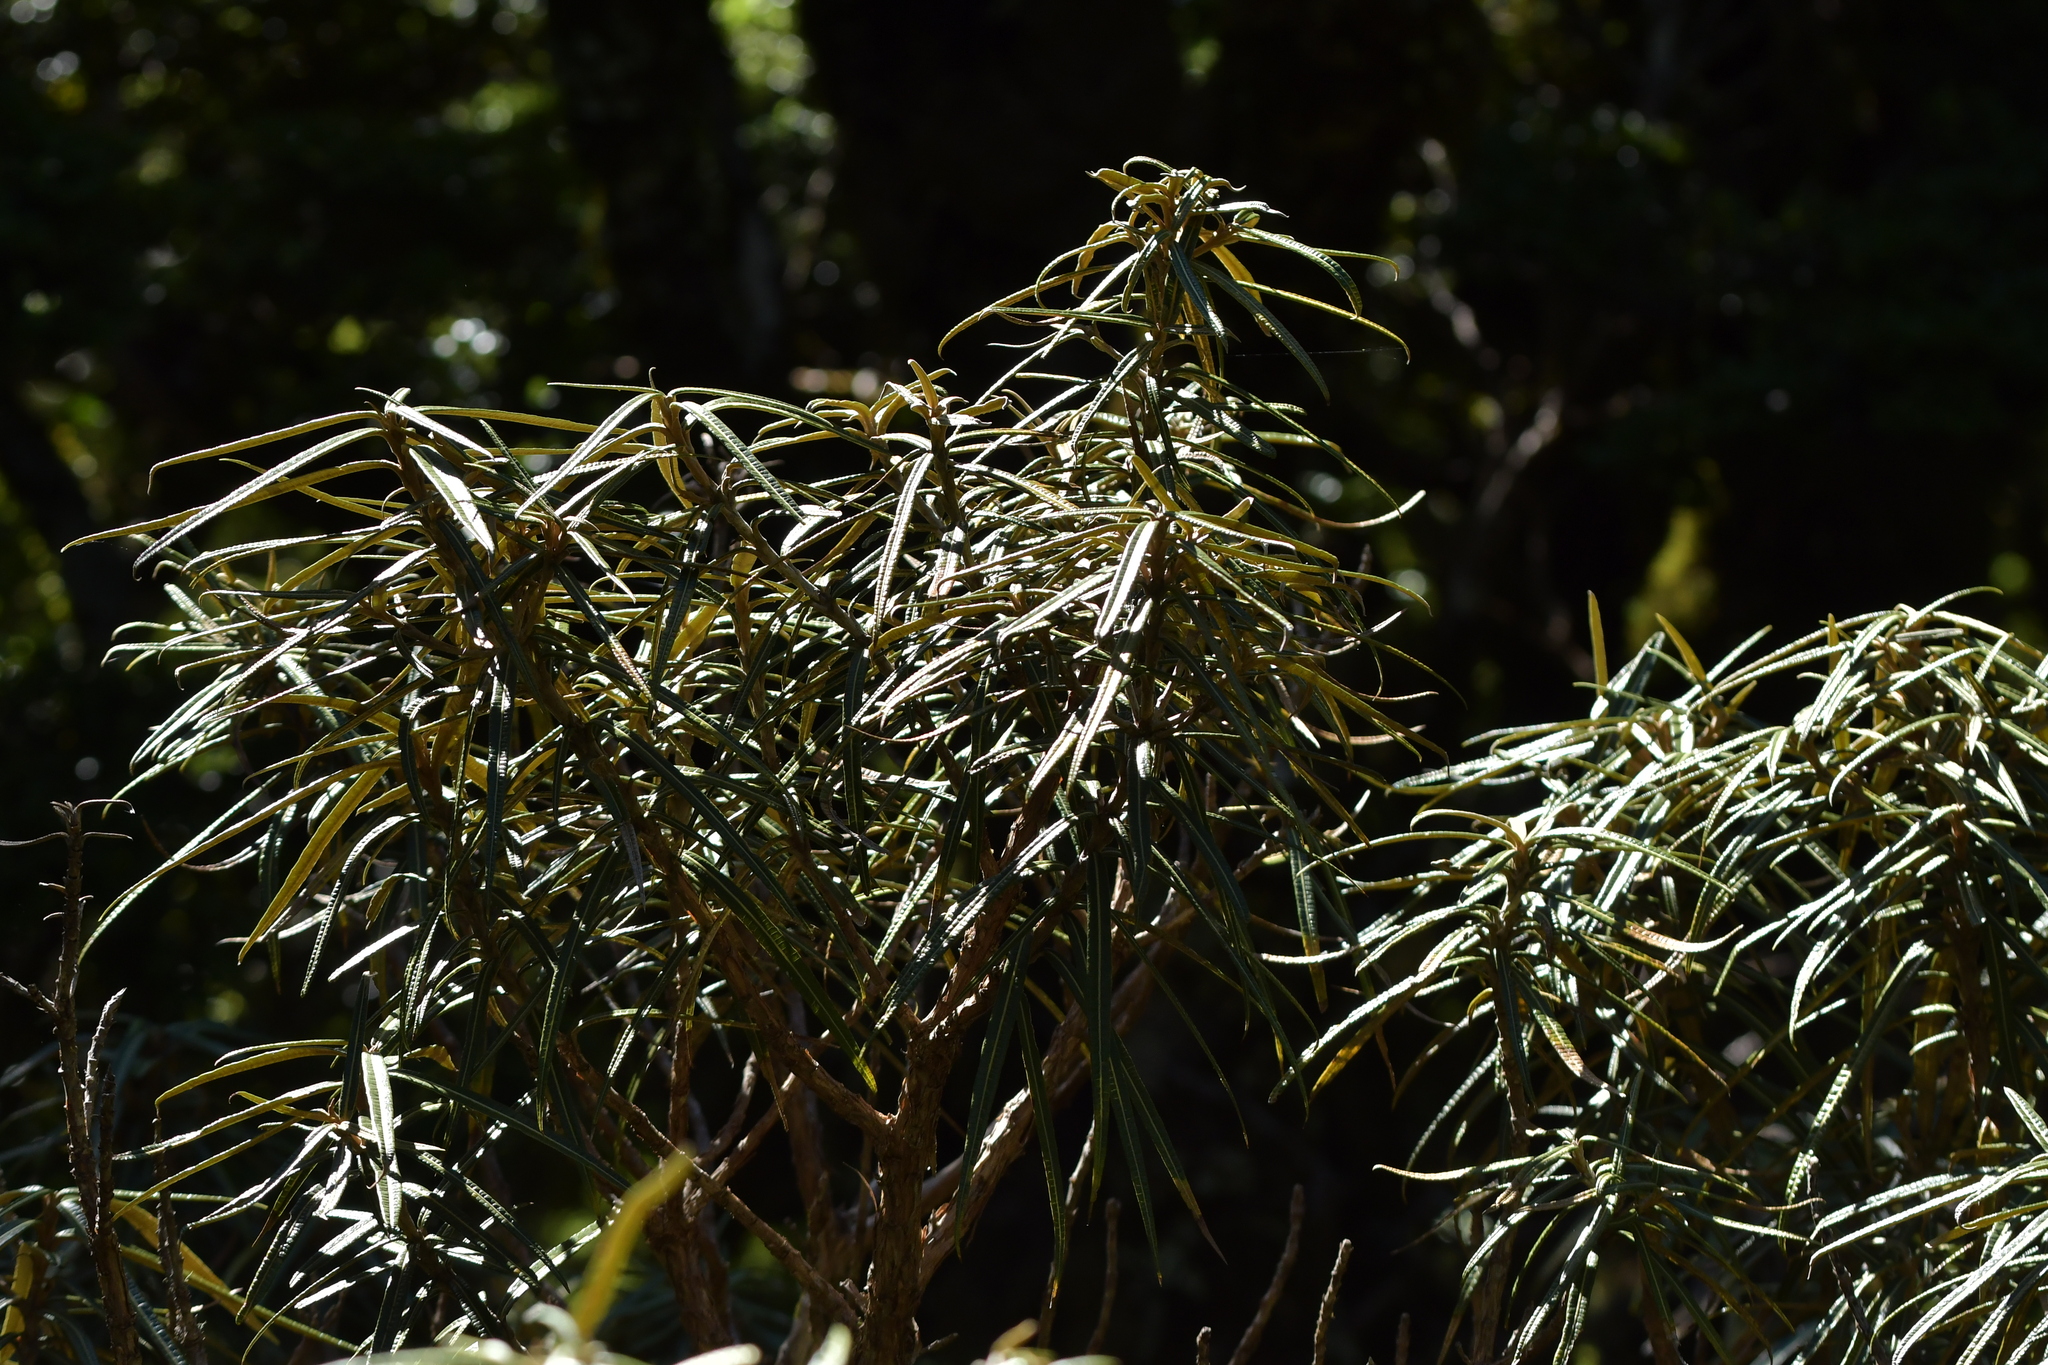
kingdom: Plantae
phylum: Tracheophyta
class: Magnoliopsida
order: Asterales
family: Asteraceae
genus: Olearia
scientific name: Olearia lacunosa
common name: Lancewood tree daisy
